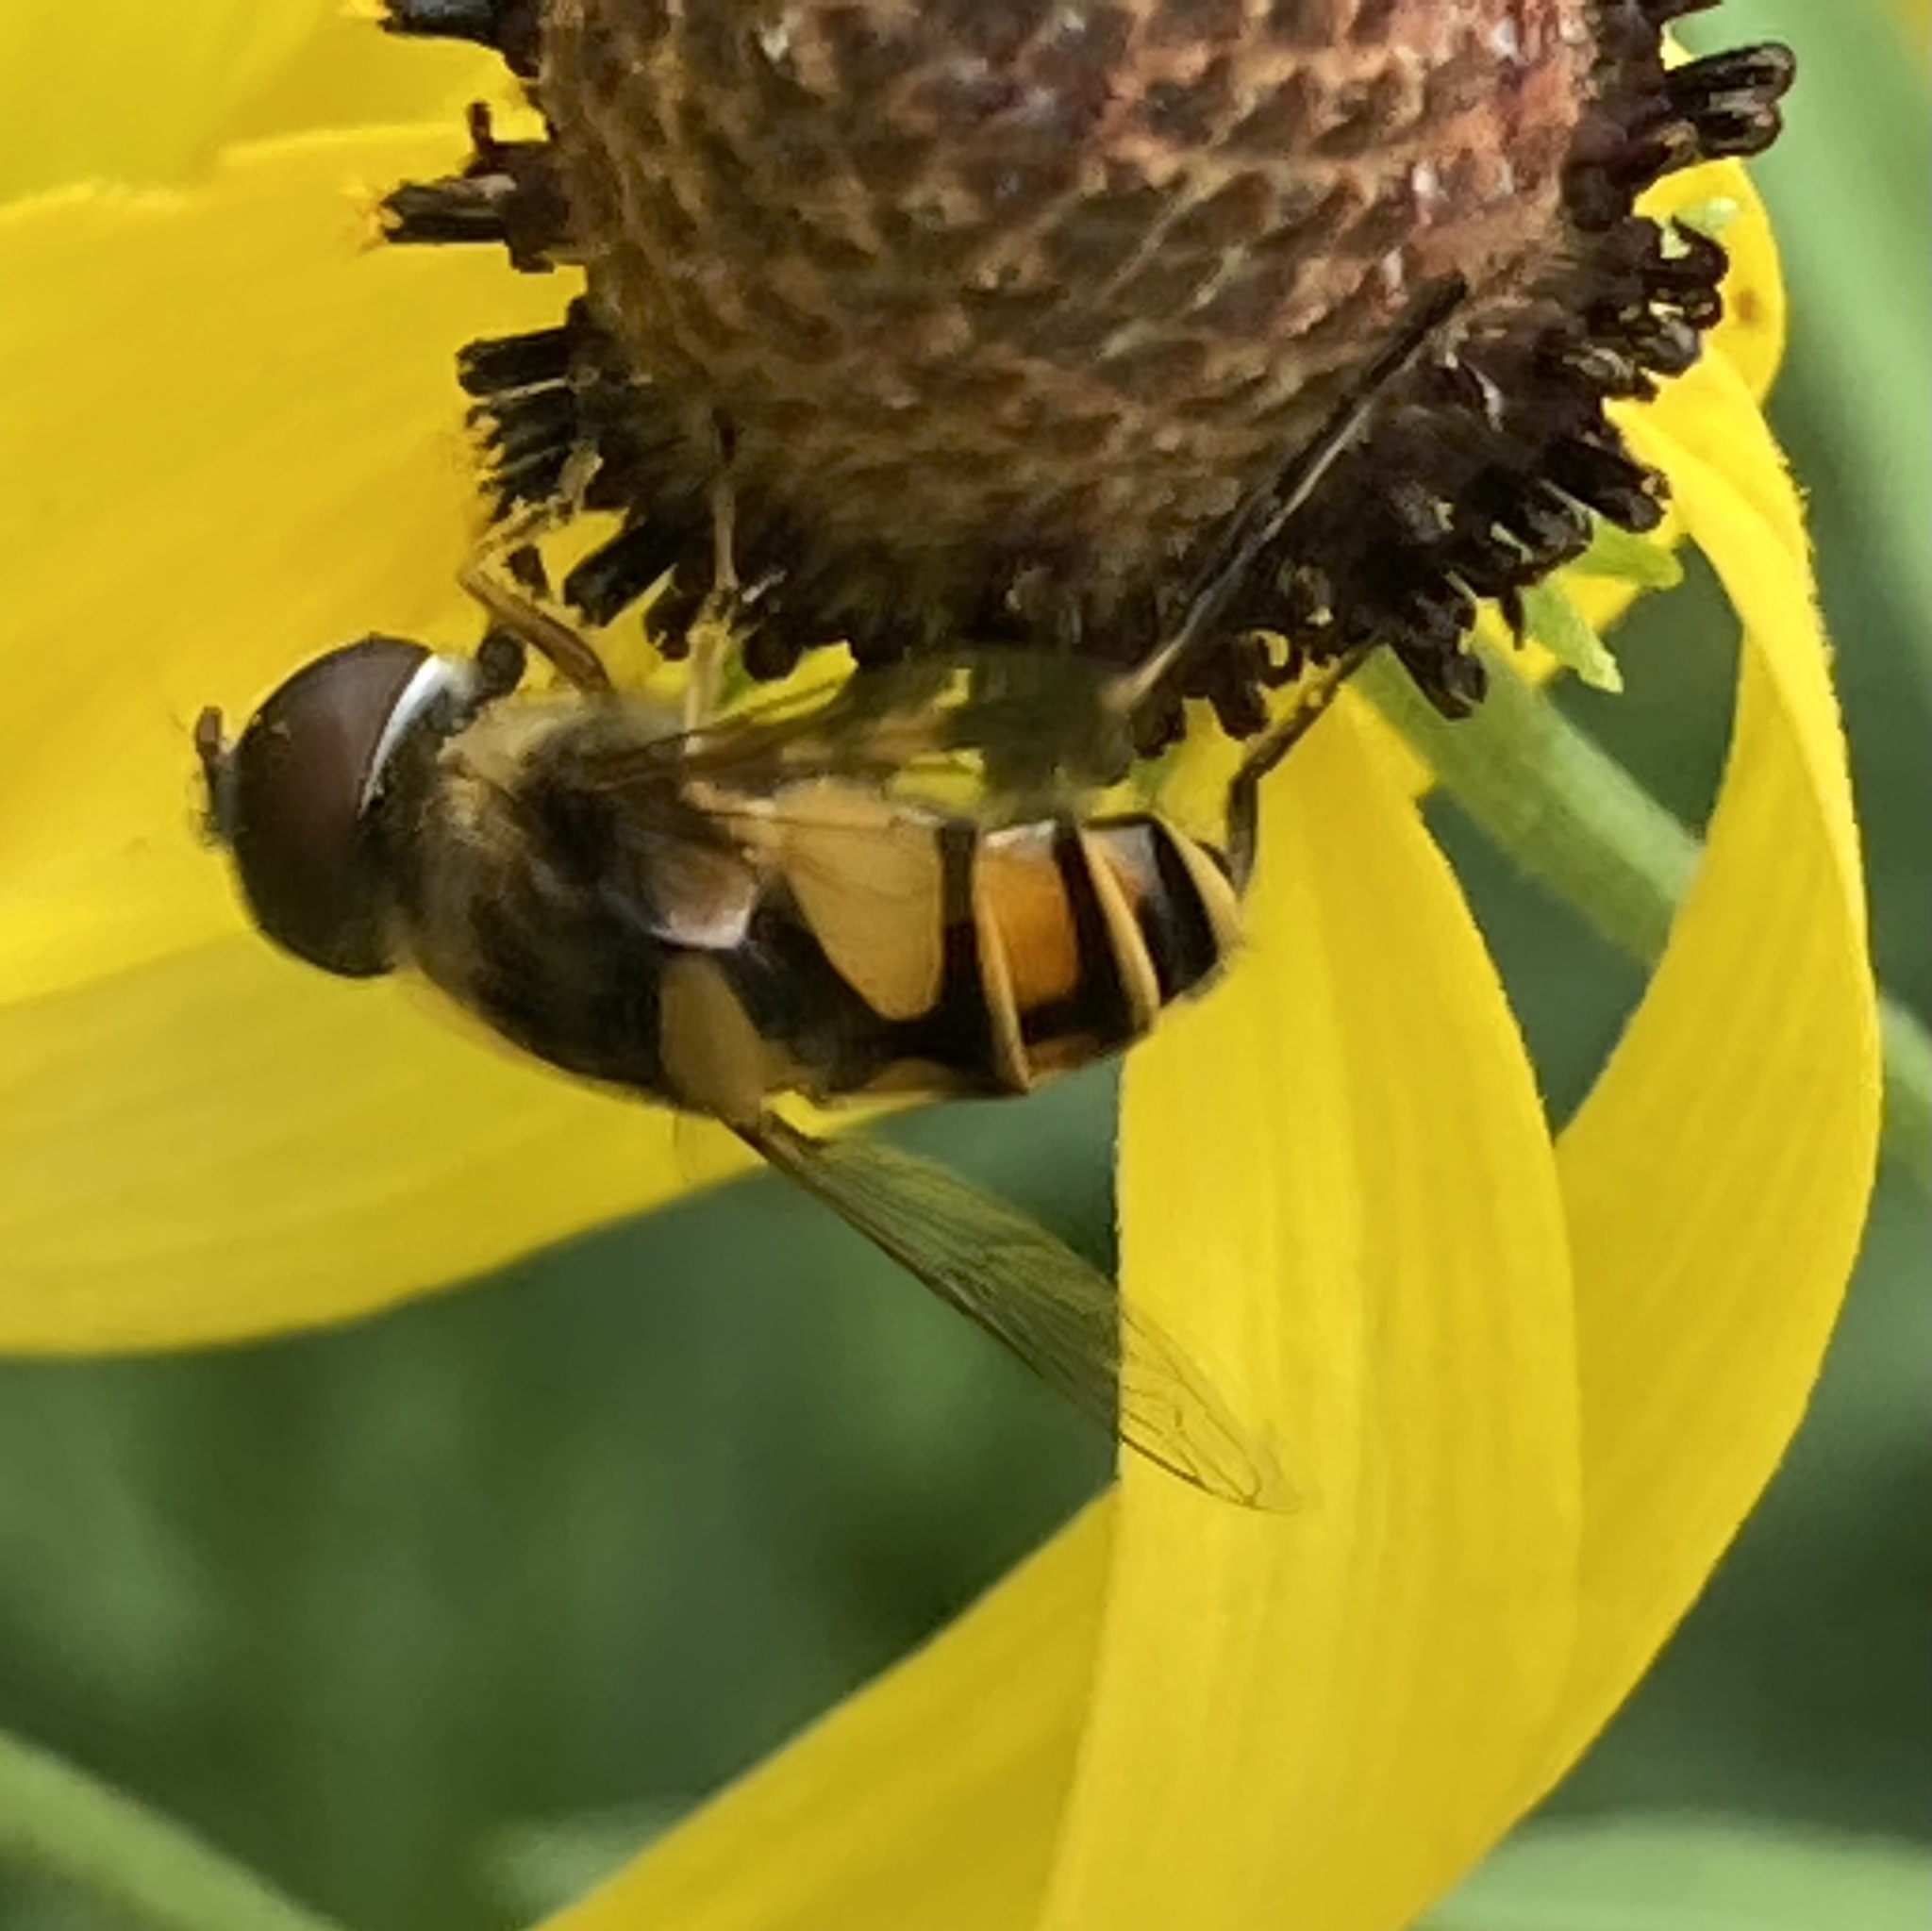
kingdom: Animalia
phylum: Arthropoda
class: Insecta
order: Diptera
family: Syrphidae
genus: Eristalis
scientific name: Eristalis transversa
